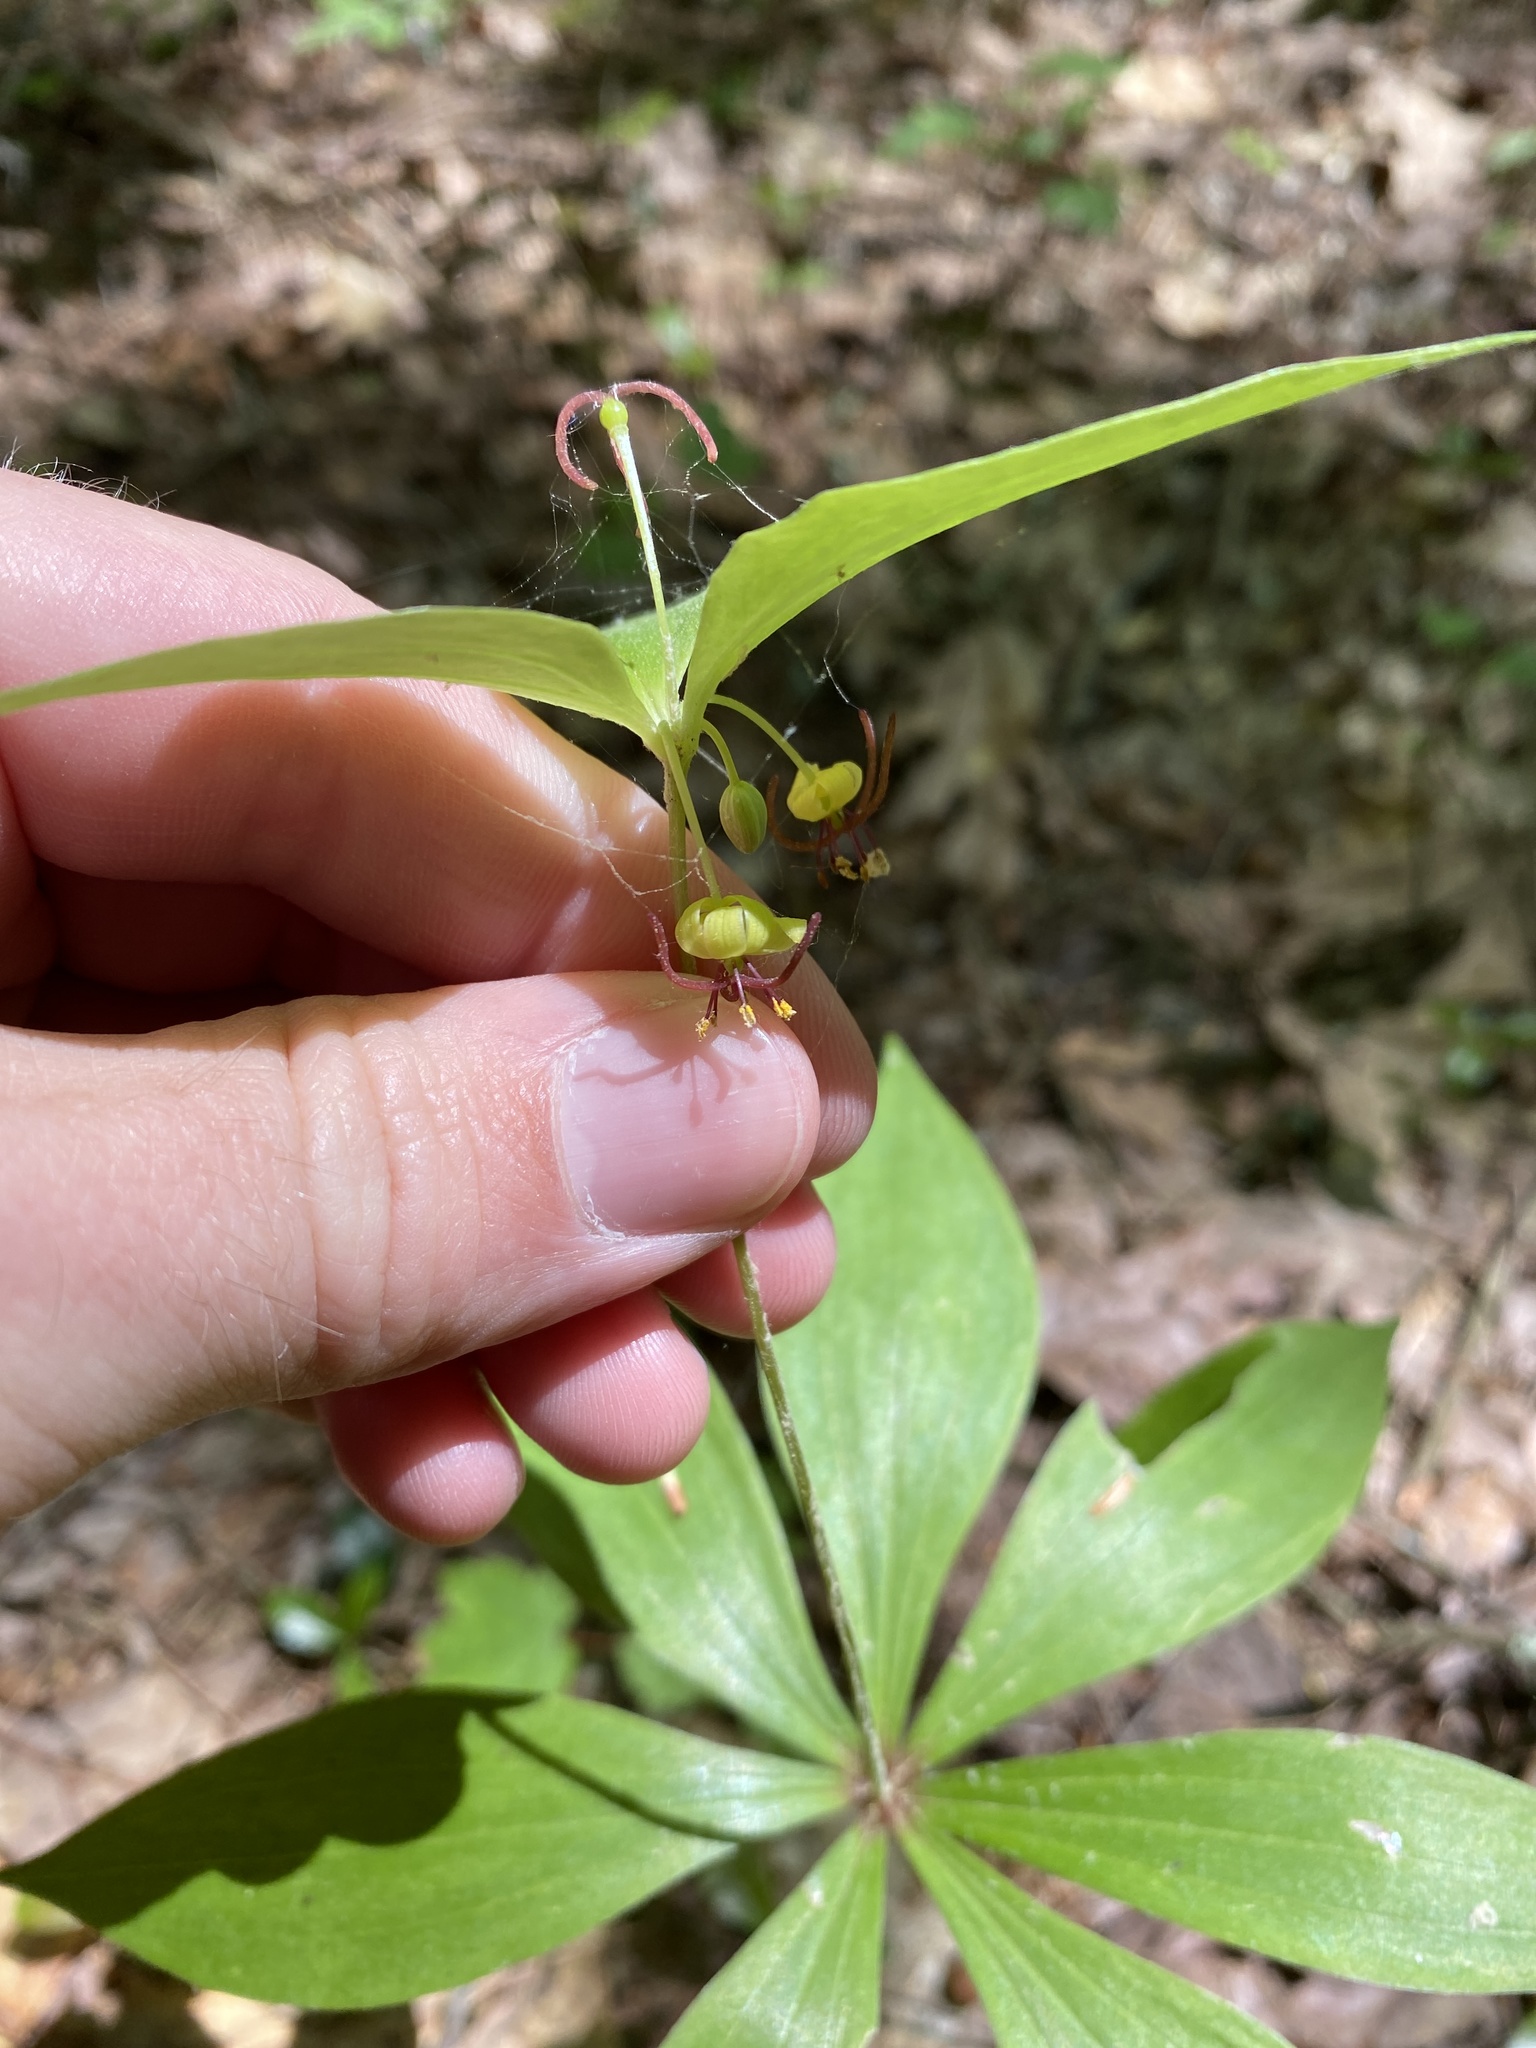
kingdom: Plantae
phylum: Tracheophyta
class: Liliopsida
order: Liliales
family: Liliaceae
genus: Medeola
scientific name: Medeola virginiana
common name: Indian cucumber-root
